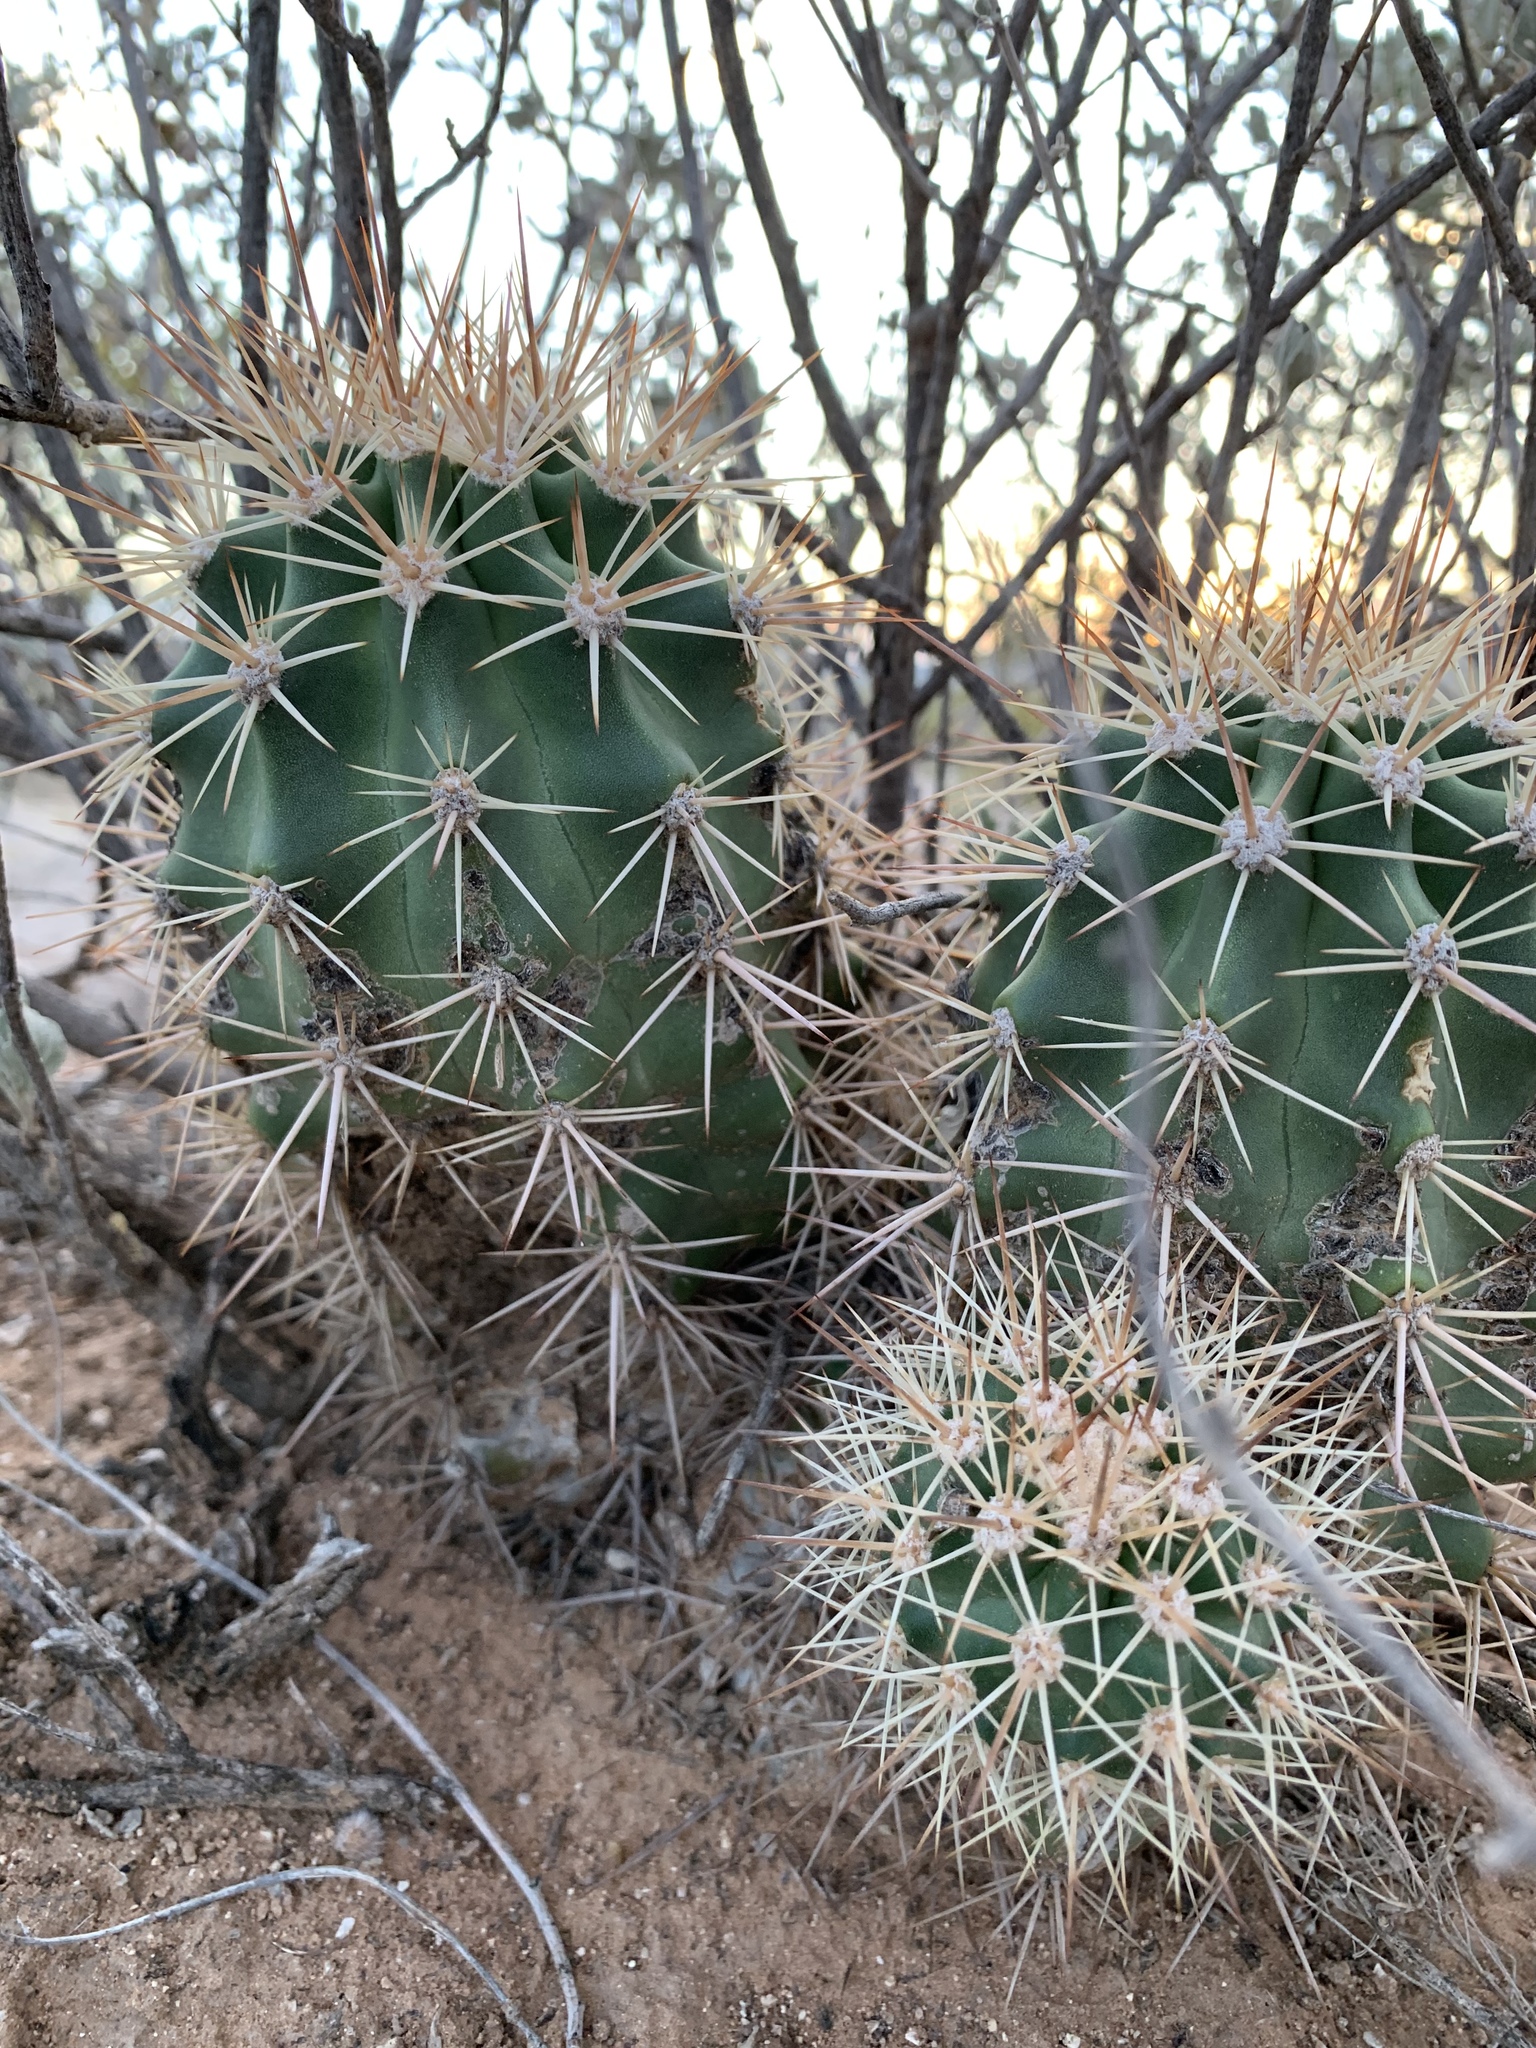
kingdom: Plantae
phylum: Tracheophyta
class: Magnoliopsida
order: Caryophyllales
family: Cactaceae
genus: Echinocereus
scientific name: Echinocereus coccineus
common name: Scarlet hedgehog cactus
